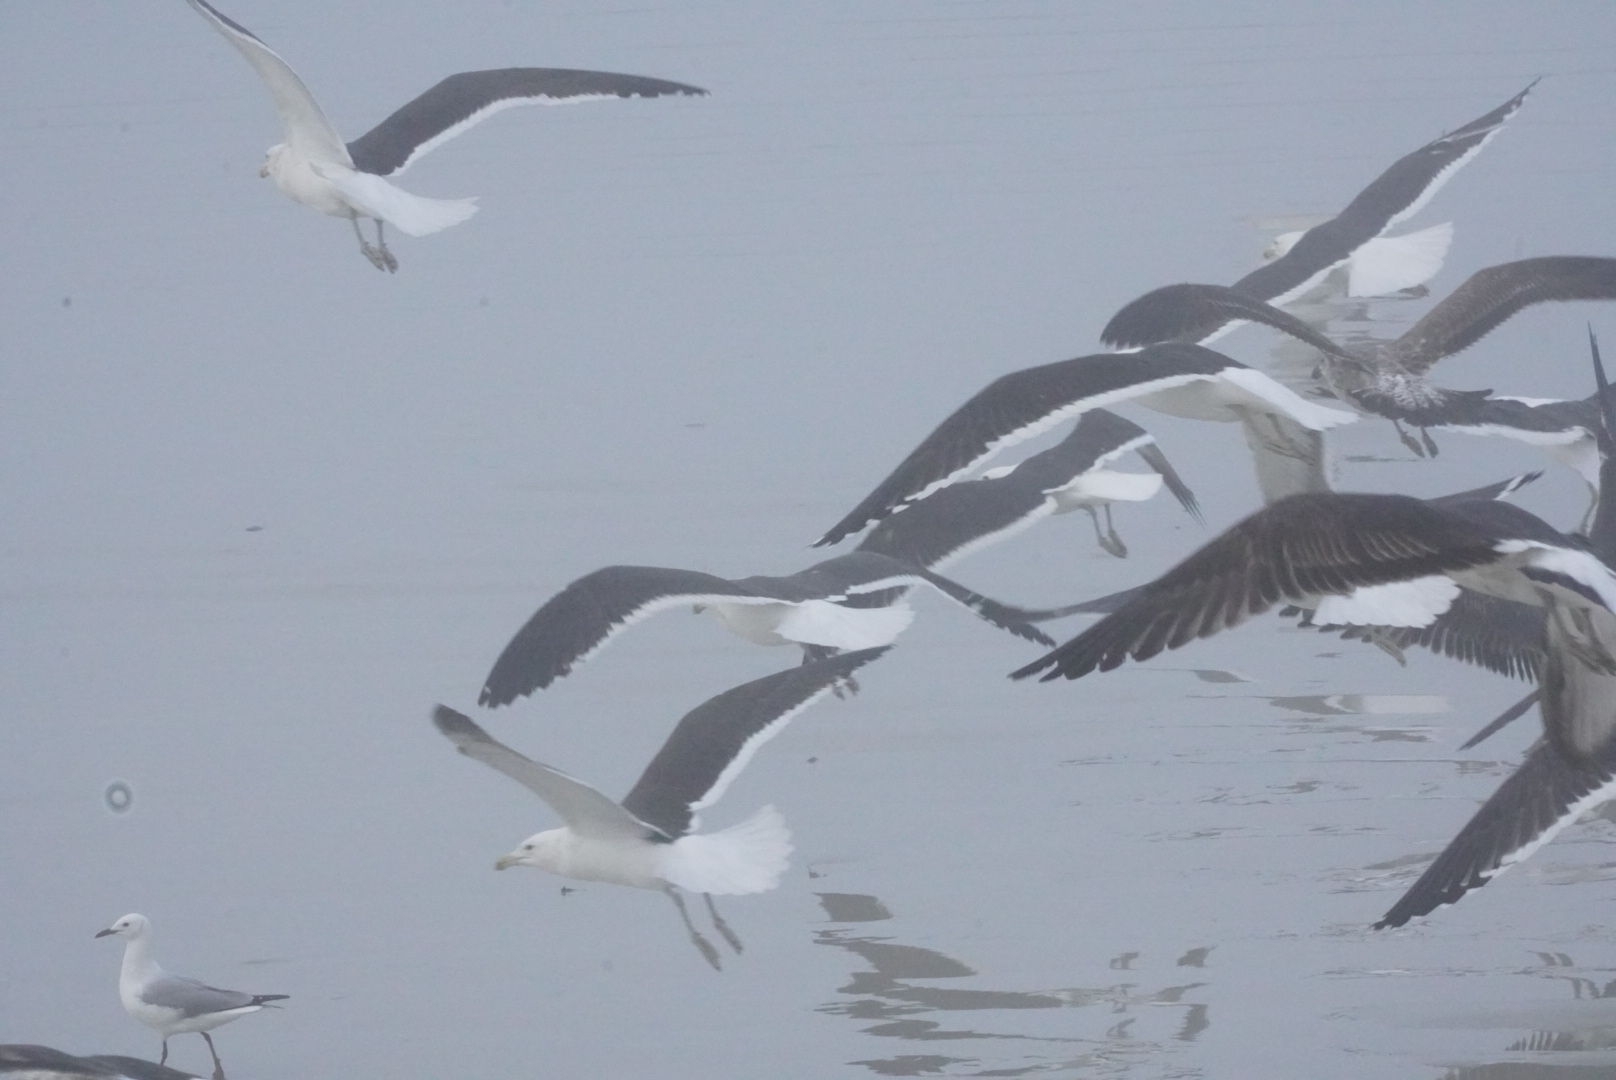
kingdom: Animalia
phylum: Chordata
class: Aves
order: Charadriiformes
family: Laridae
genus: Larus
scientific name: Larus dominicanus
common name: Kelp gull
